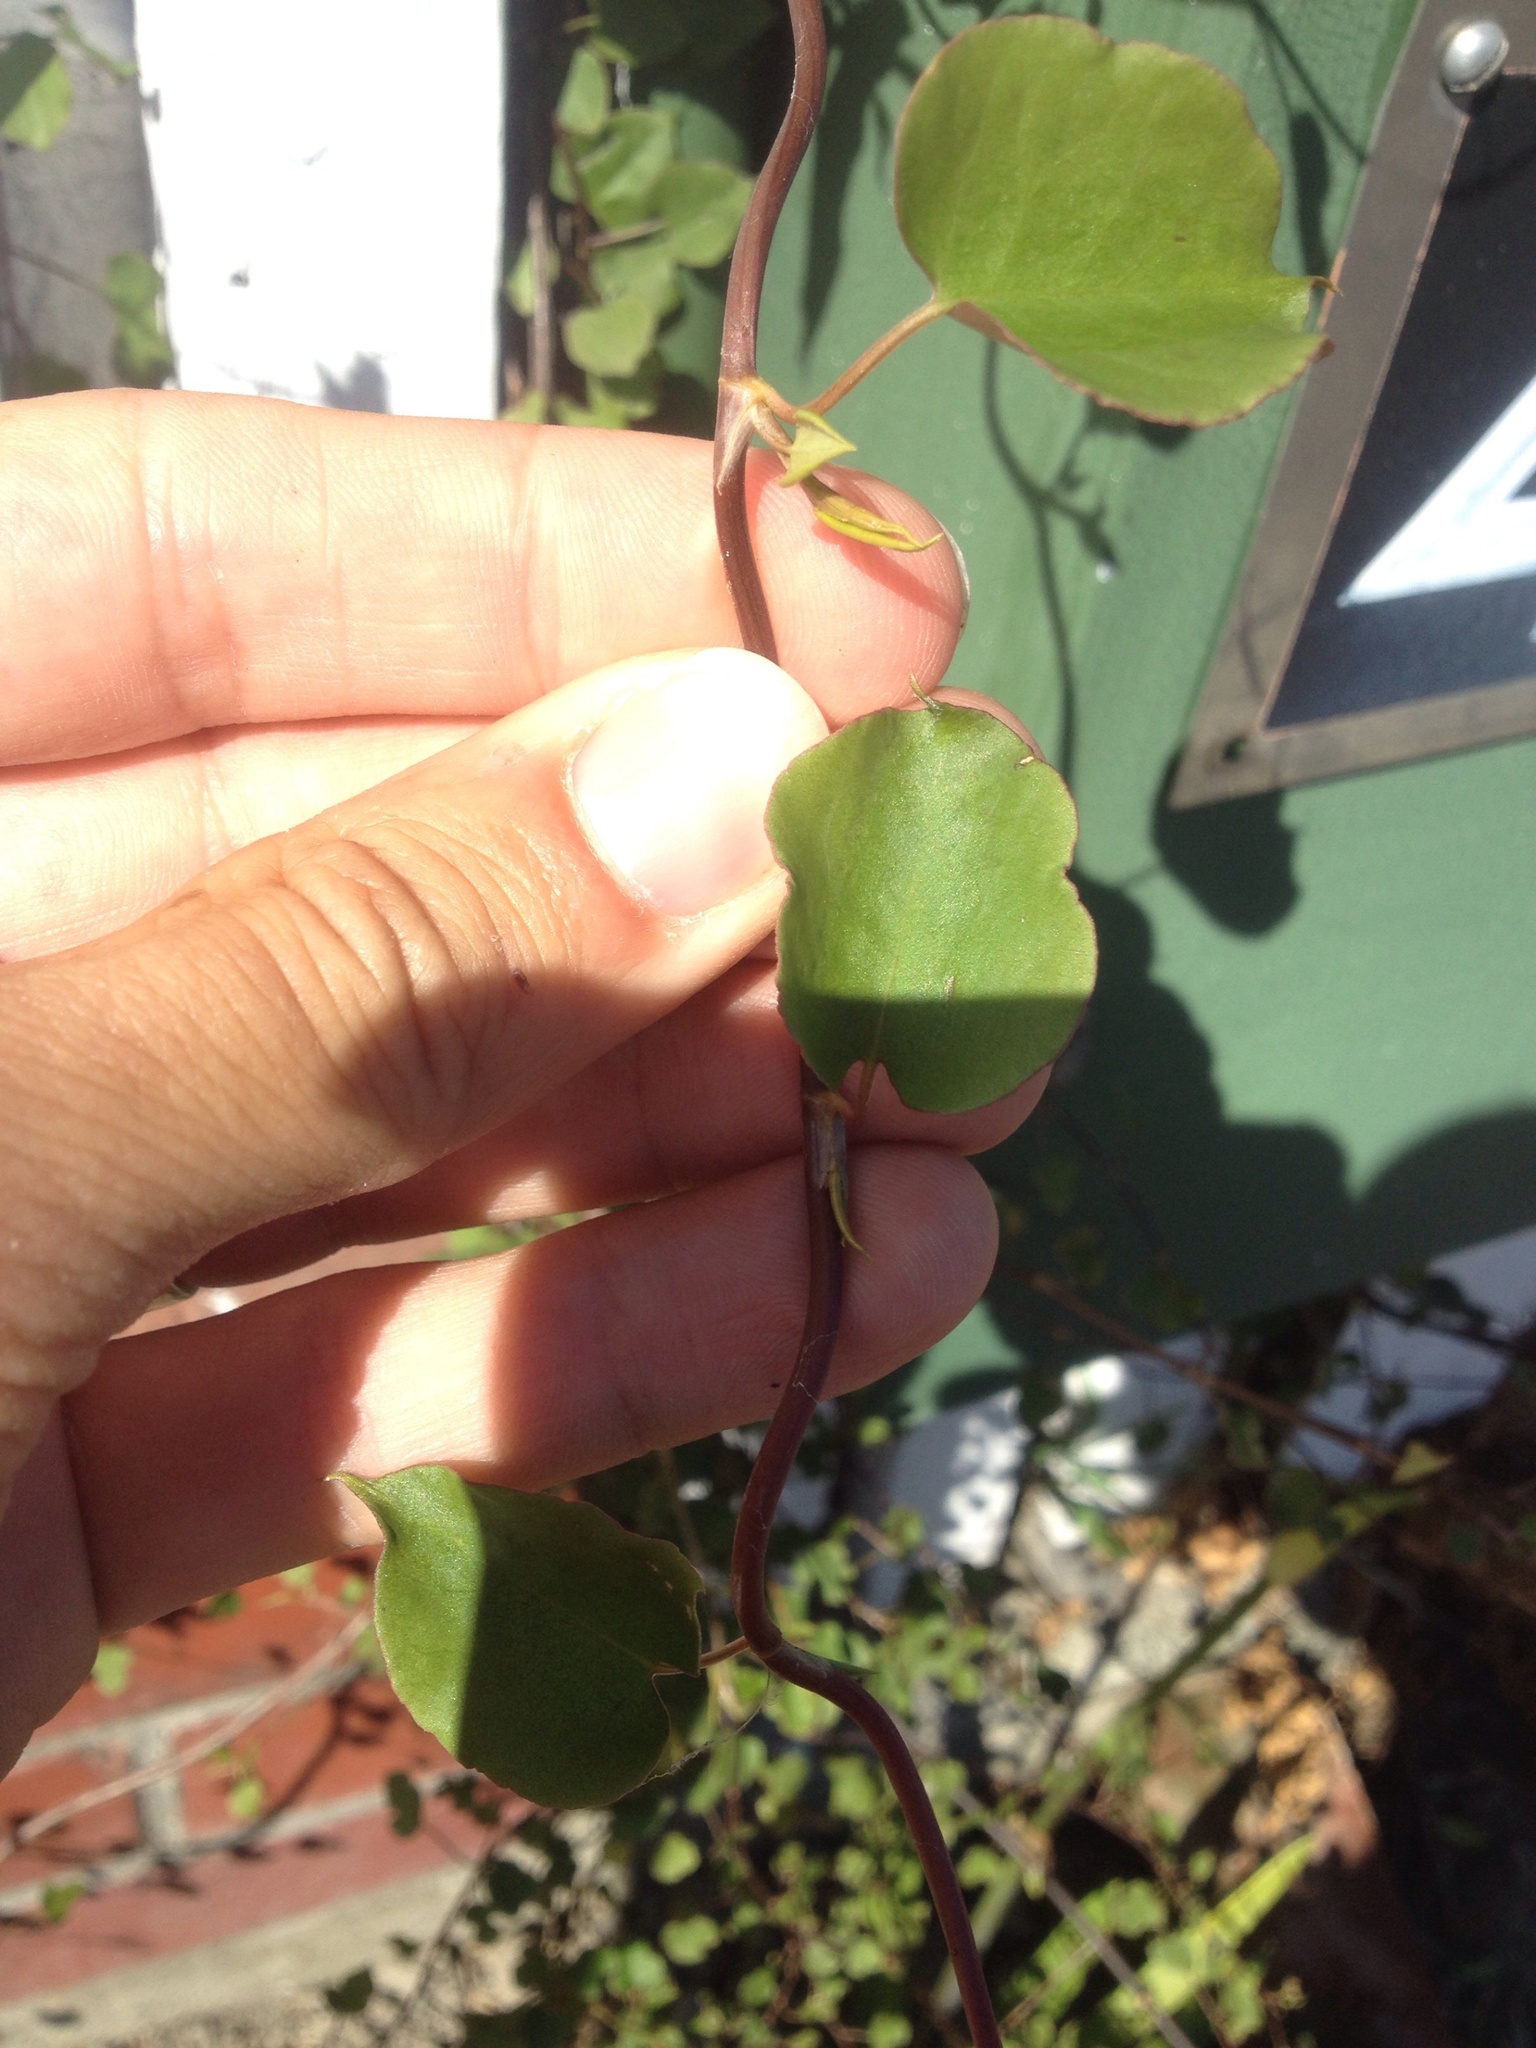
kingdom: Plantae
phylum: Tracheophyta
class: Magnoliopsida
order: Caryophyllales
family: Polygonaceae
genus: Muehlenbeckia
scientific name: Muehlenbeckia australis
